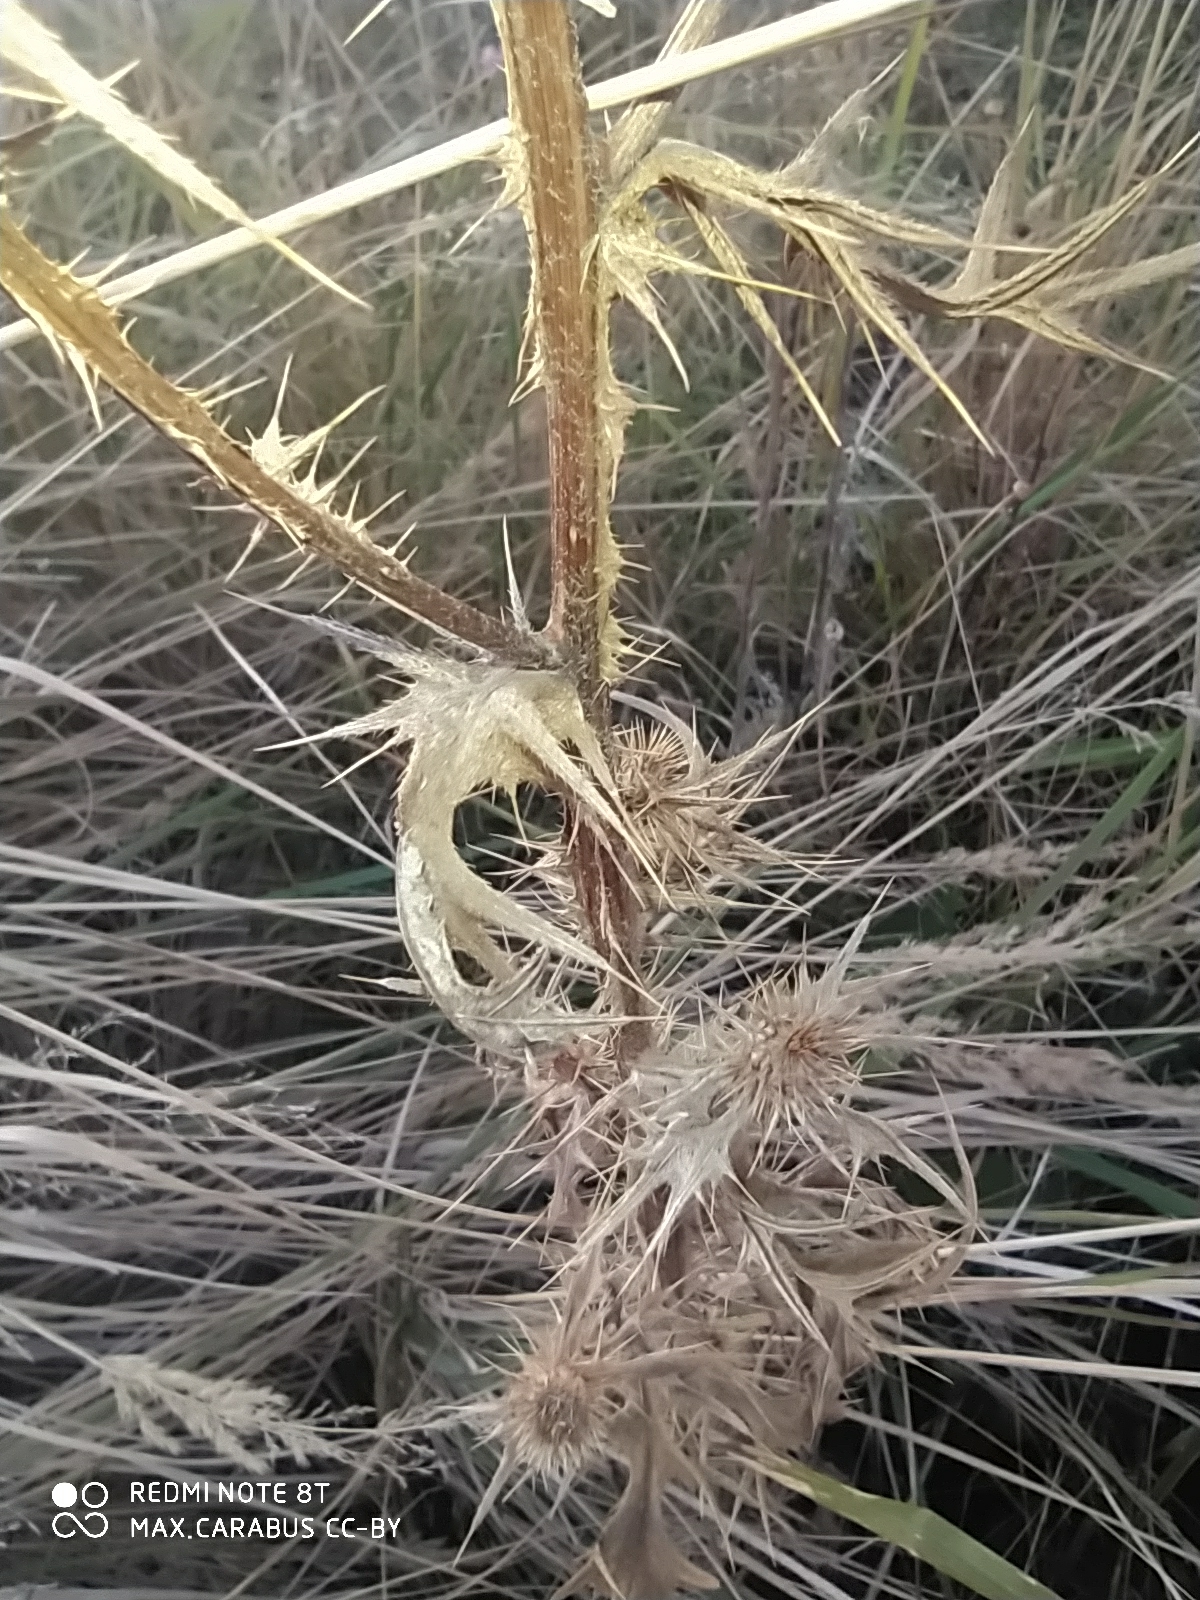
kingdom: Plantae
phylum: Tracheophyta
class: Magnoliopsida
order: Asterales
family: Asteraceae
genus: Cirsium
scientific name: Cirsium vulgare
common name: Bull thistle
